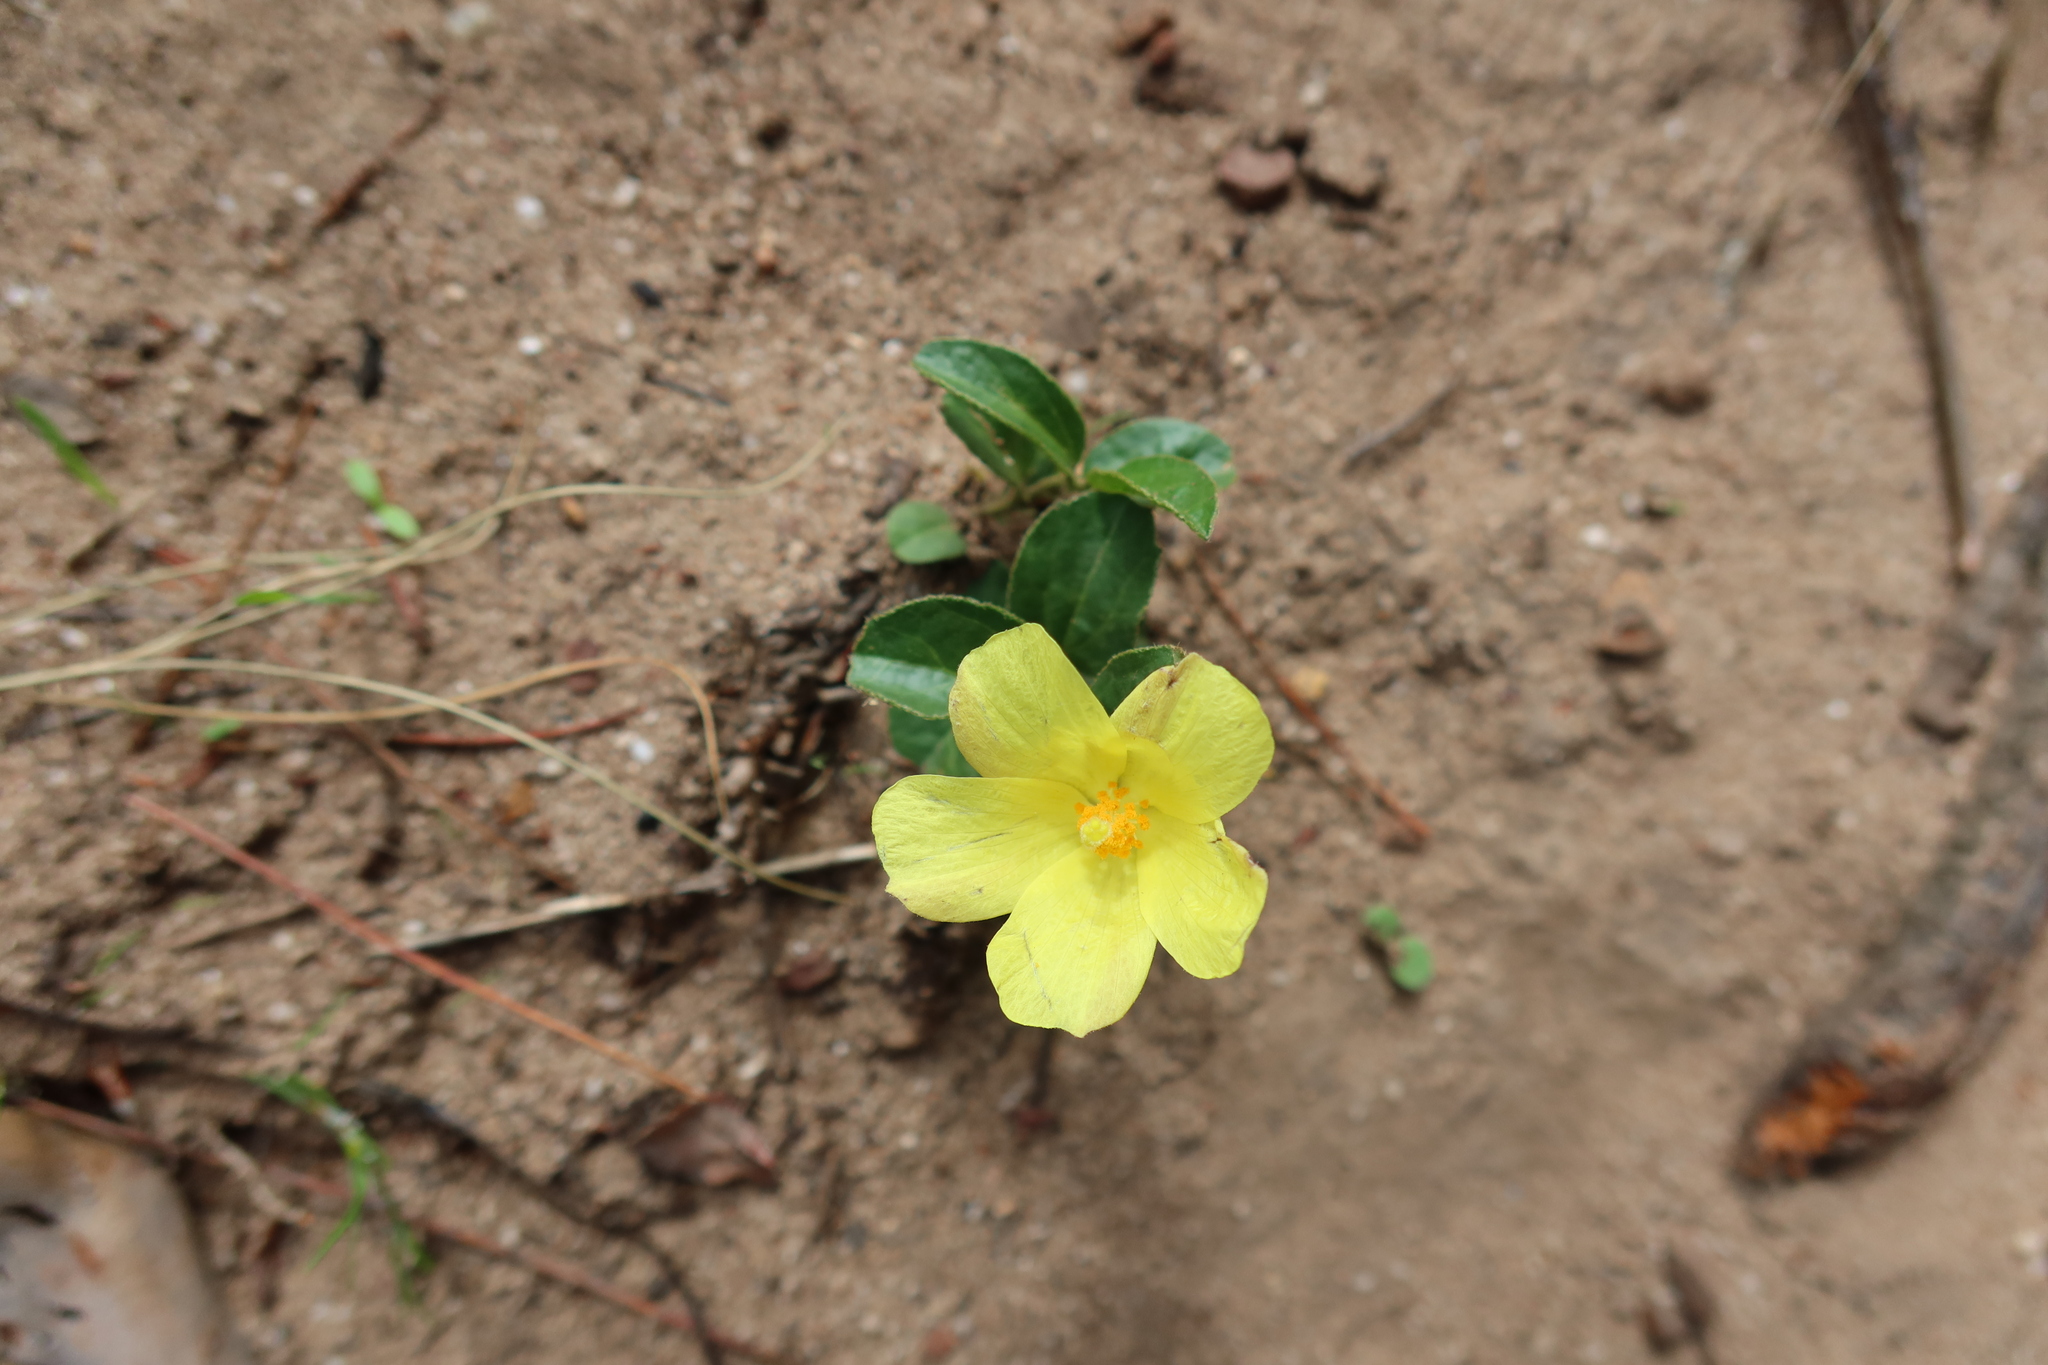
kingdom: Plantae
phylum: Tracheophyta
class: Magnoliopsida
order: Malvales
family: Malvaceae
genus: Hibiscus
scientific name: Hibiscus aethiopicus
